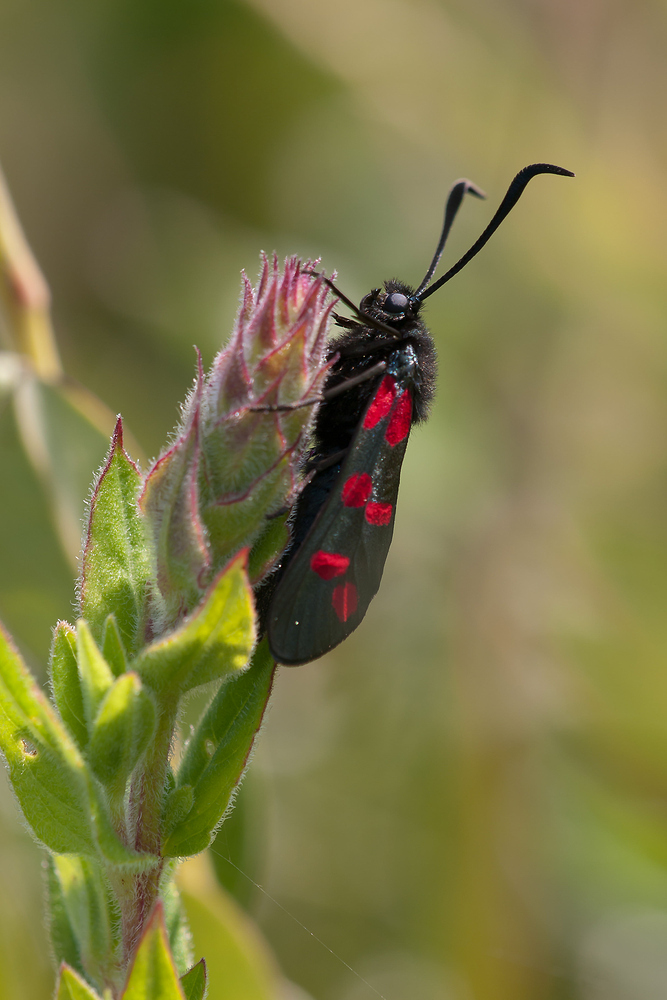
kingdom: Animalia
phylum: Arthropoda
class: Insecta
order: Lepidoptera
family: Zygaenidae
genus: Zygaena
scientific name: Zygaena filipendulae
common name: Six-spot burnet
